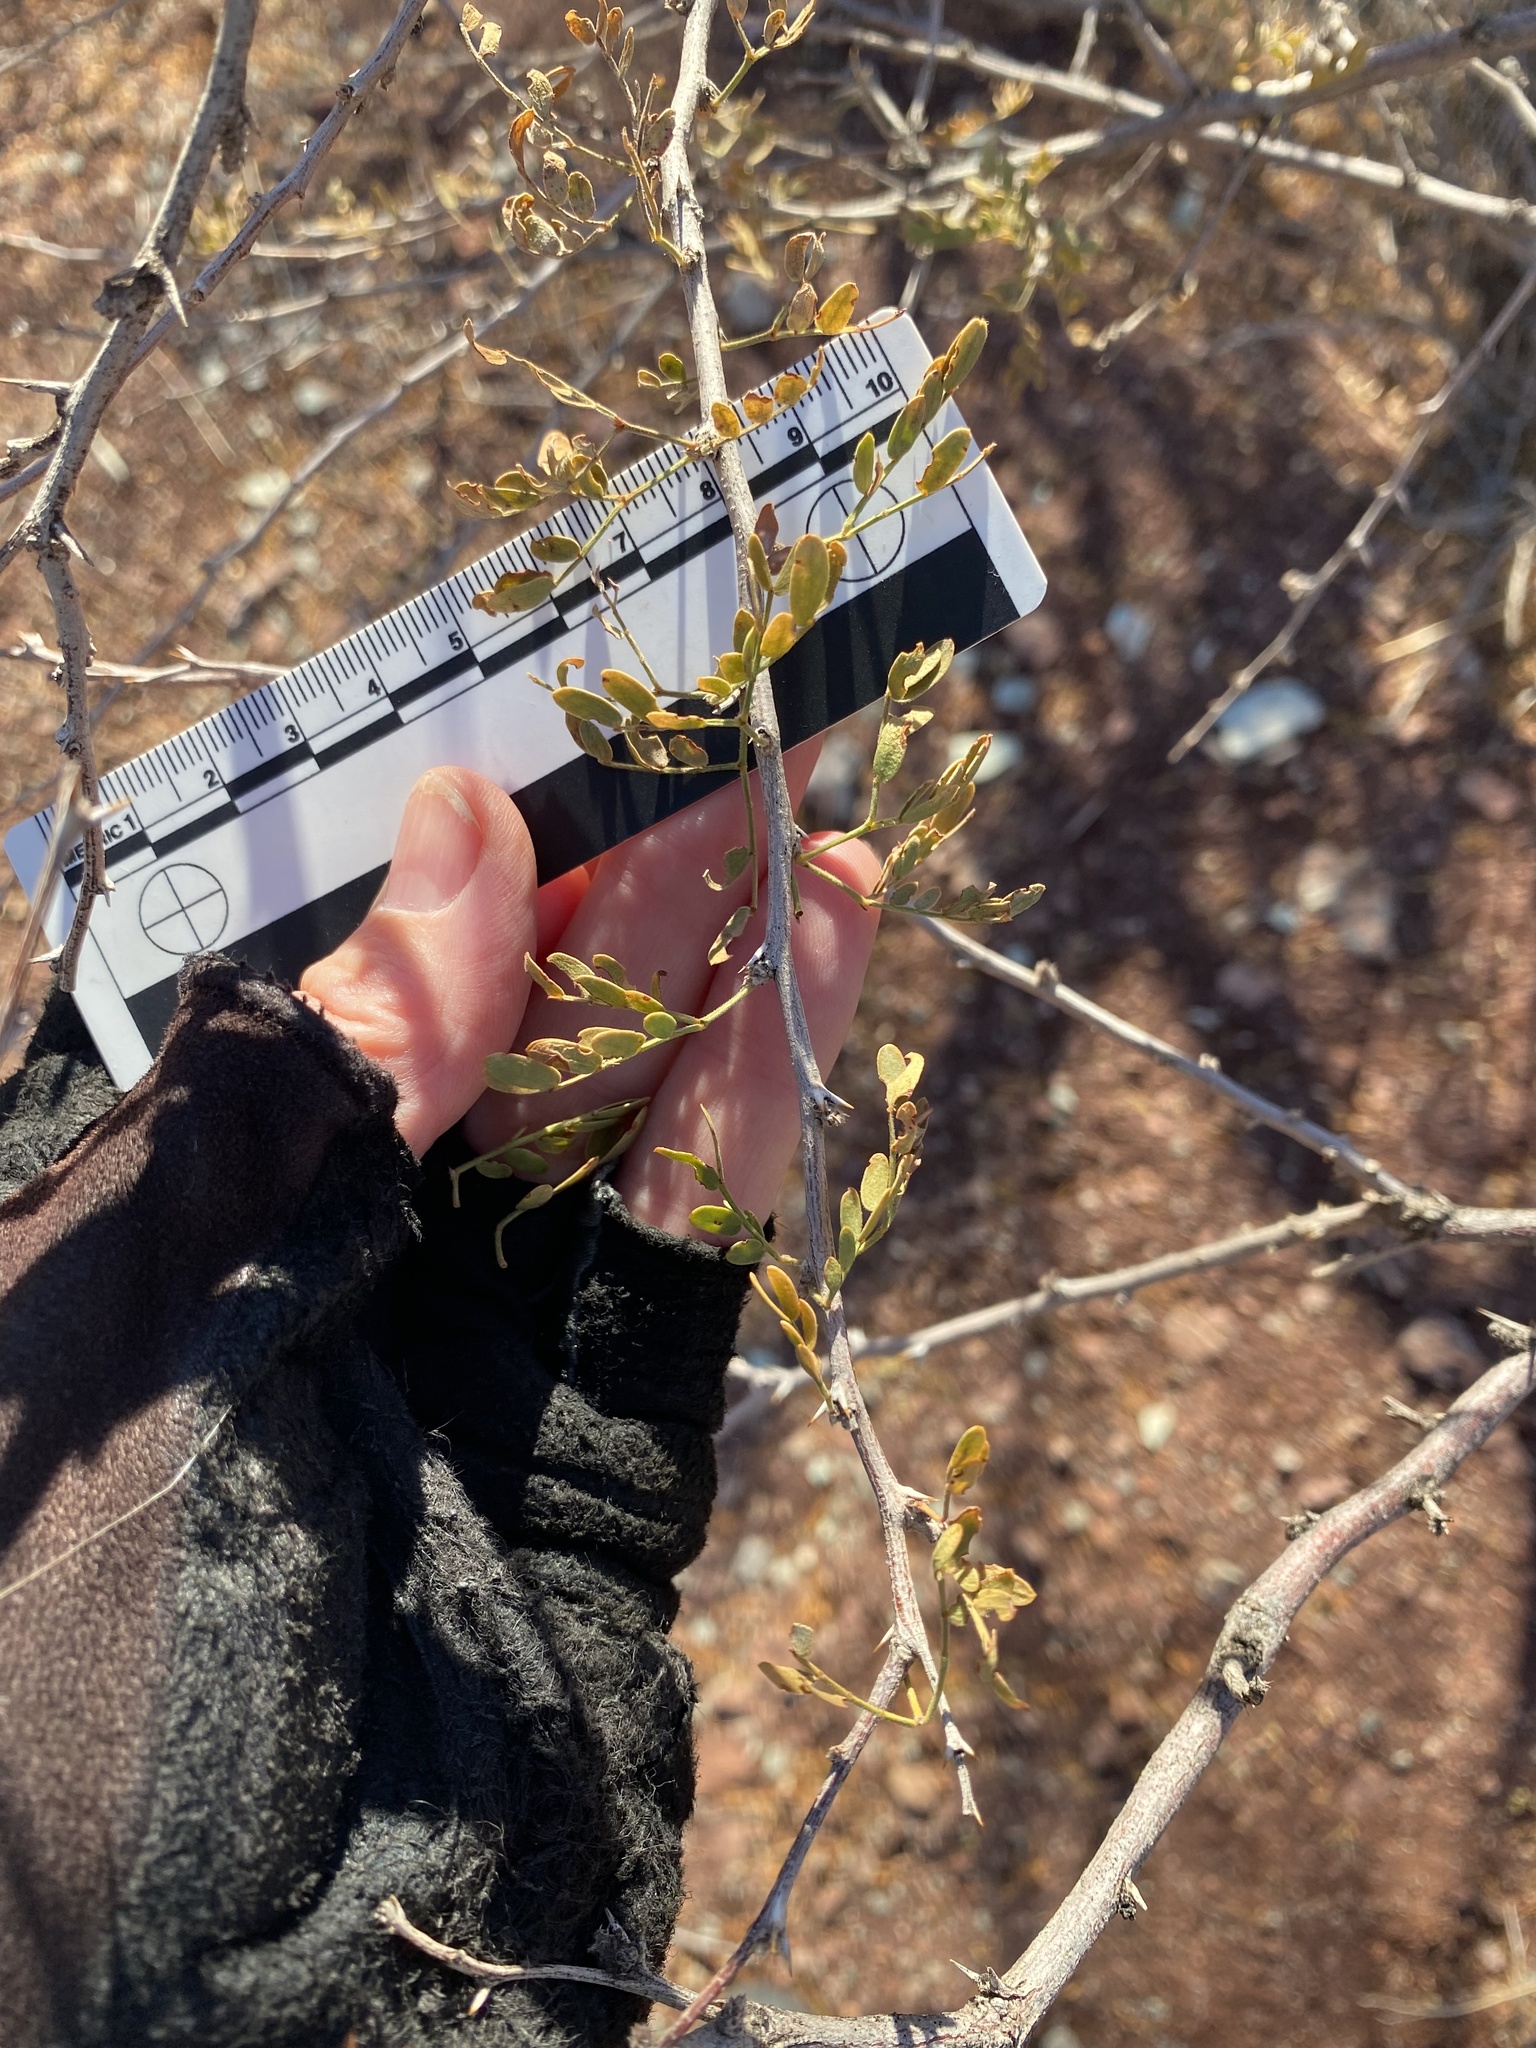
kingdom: Plantae
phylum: Tracheophyta
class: Magnoliopsida
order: Fabales
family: Fabaceae
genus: Prosopis
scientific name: Prosopis pubescens
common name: Screw-bean
